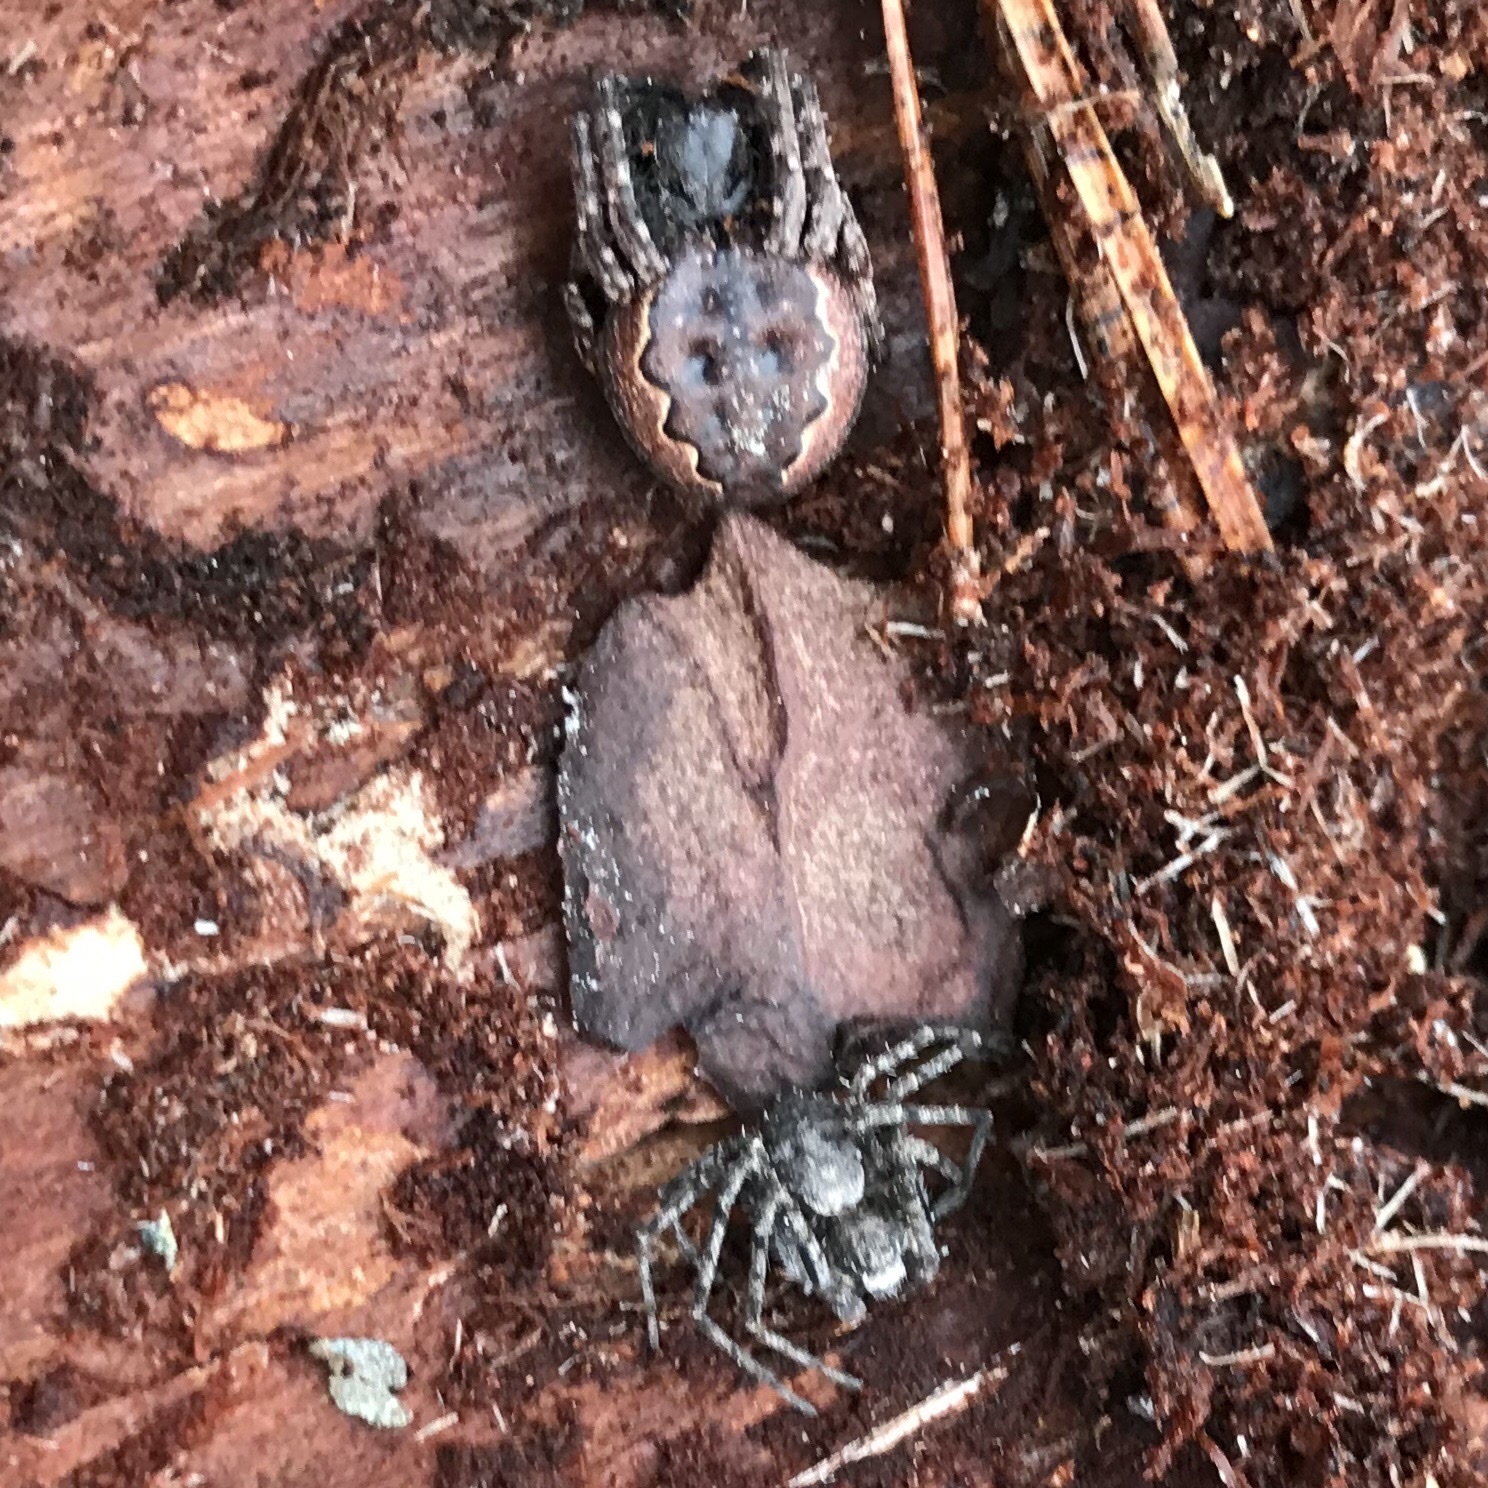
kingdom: Animalia
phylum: Arthropoda
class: Arachnida
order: Araneae
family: Philodromidae
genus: Philodromus
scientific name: Philodromus margaritatus
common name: Lichen running-spider
